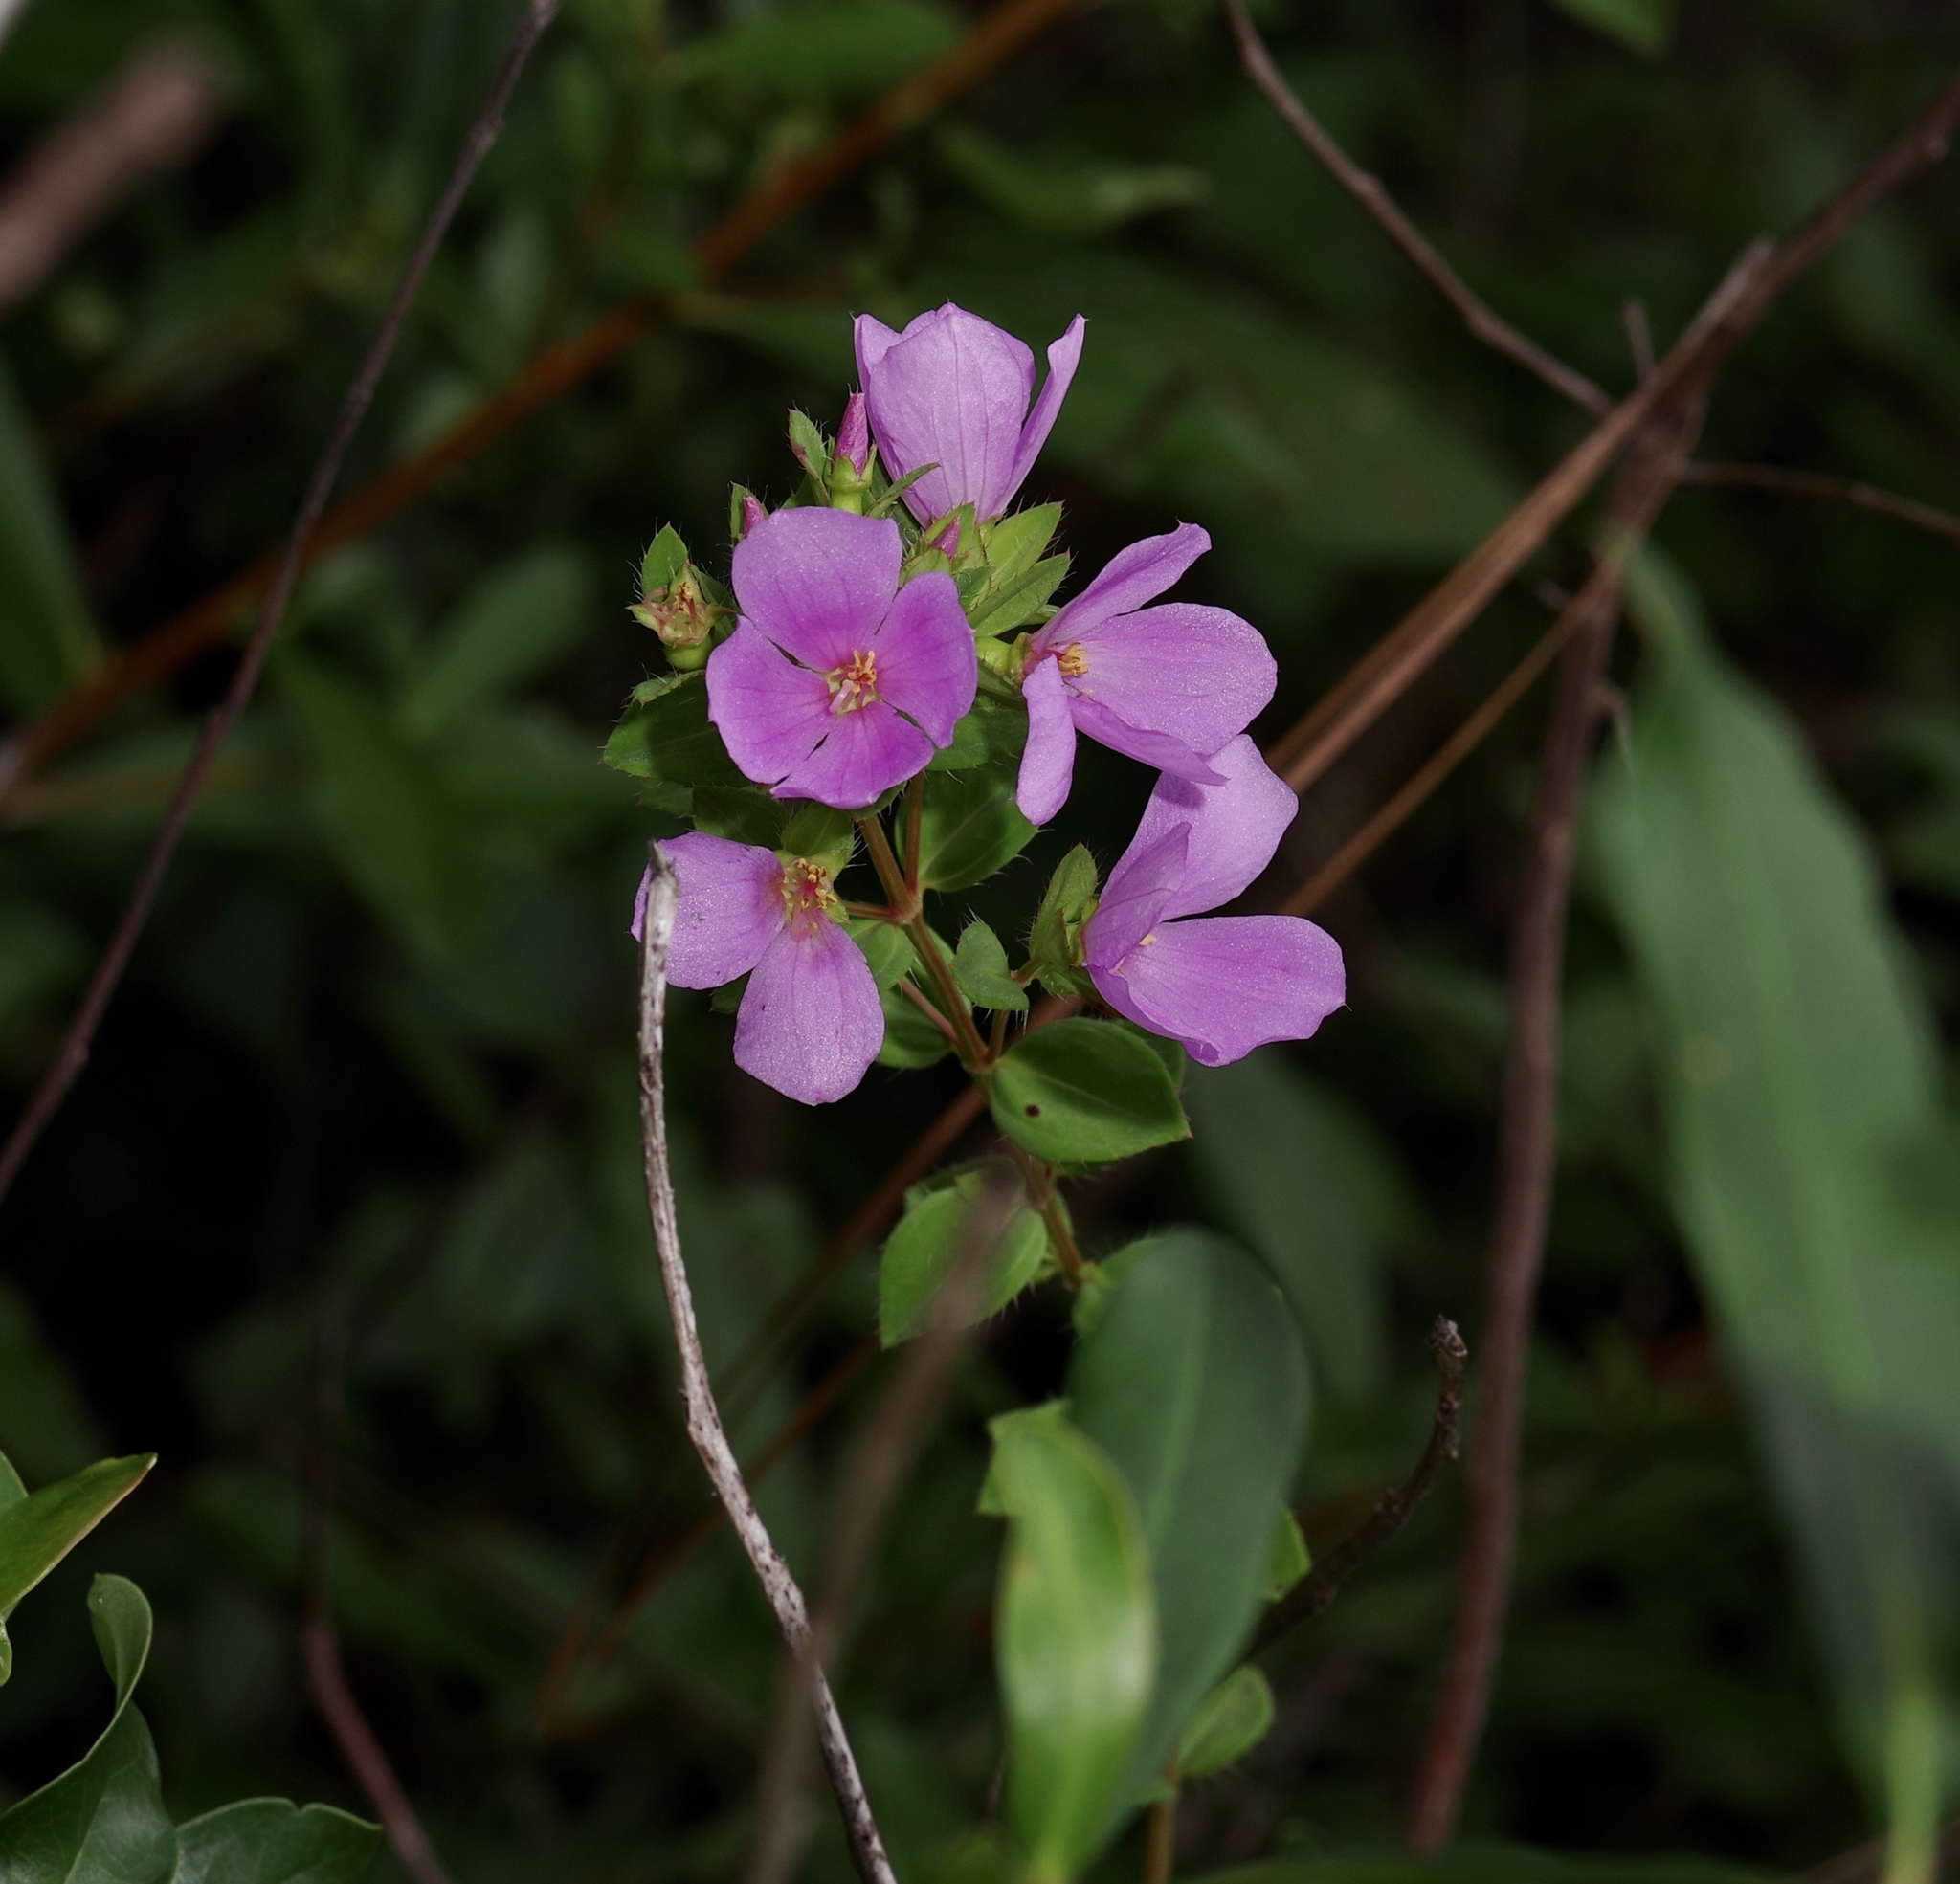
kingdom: Plantae
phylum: Tracheophyta
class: Magnoliopsida
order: Myrtales
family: Melastomataceae
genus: Rhexia
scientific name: Rhexia petiolata
